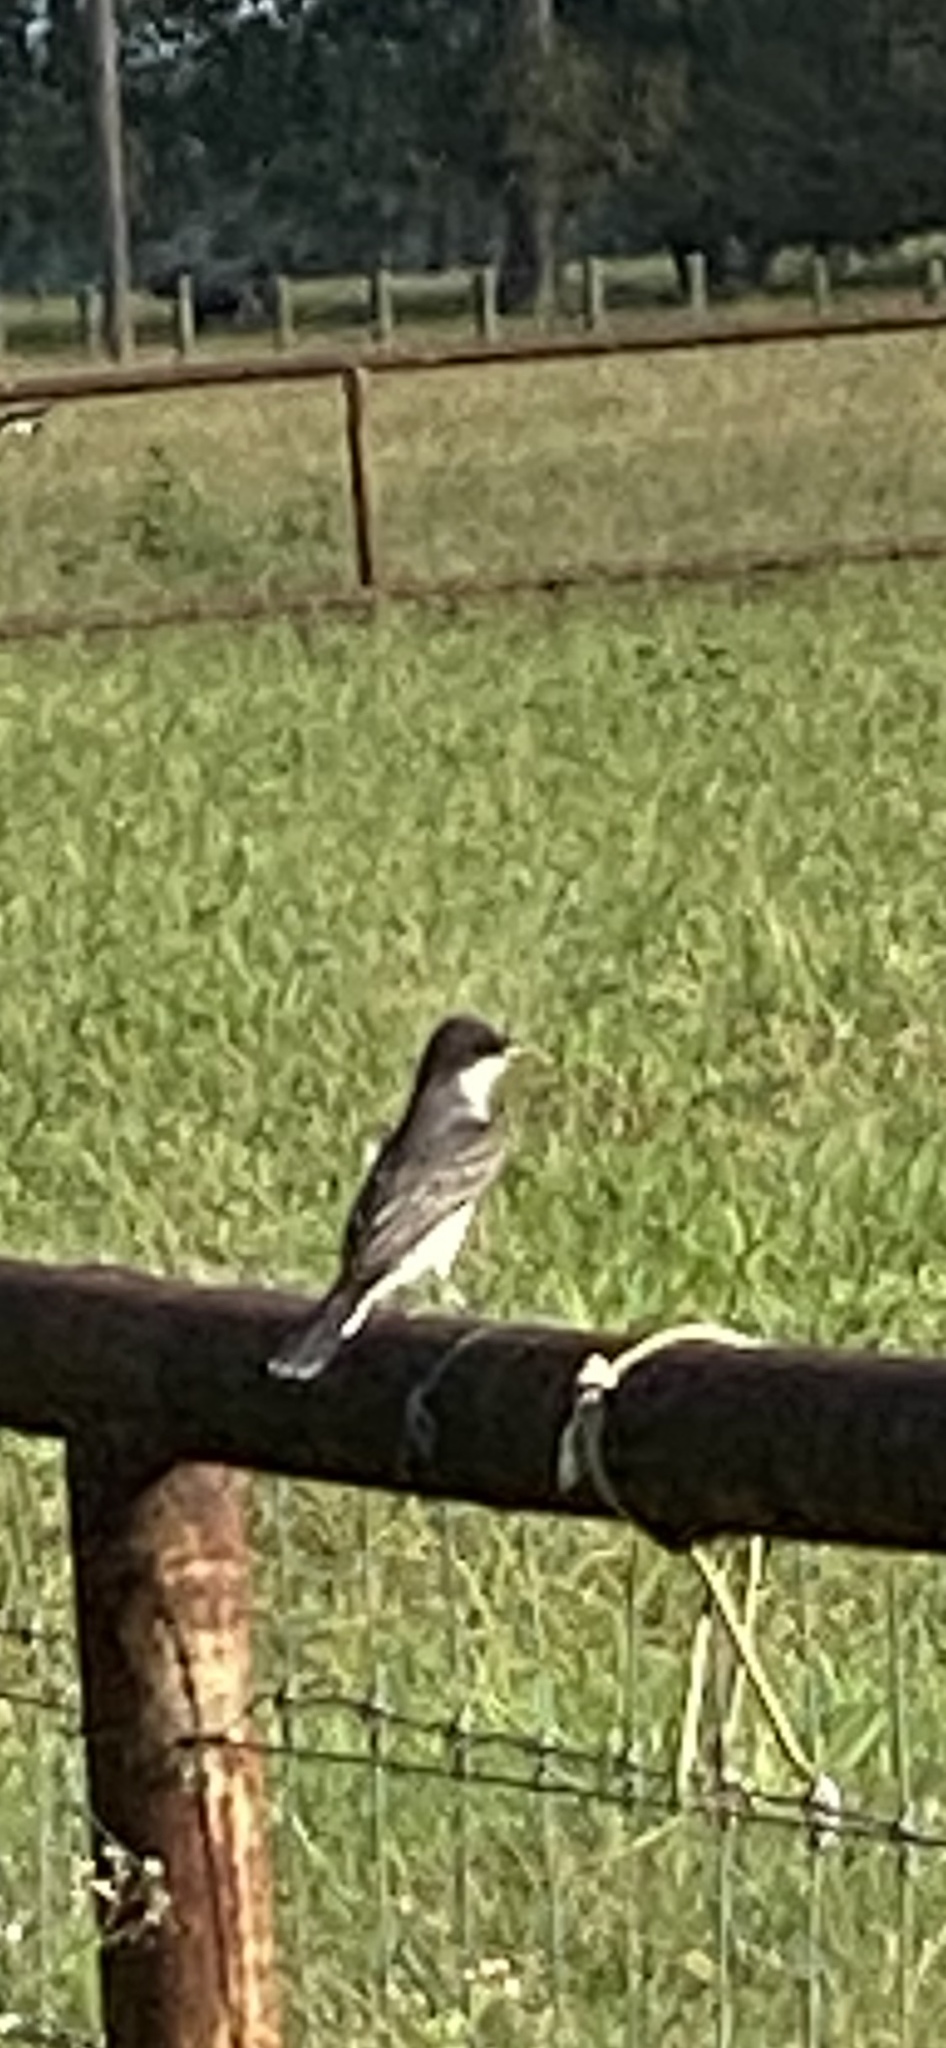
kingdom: Animalia
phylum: Chordata
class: Aves
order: Passeriformes
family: Tyrannidae
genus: Tyrannus
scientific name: Tyrannus tyrannus
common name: Eastern kingbird
